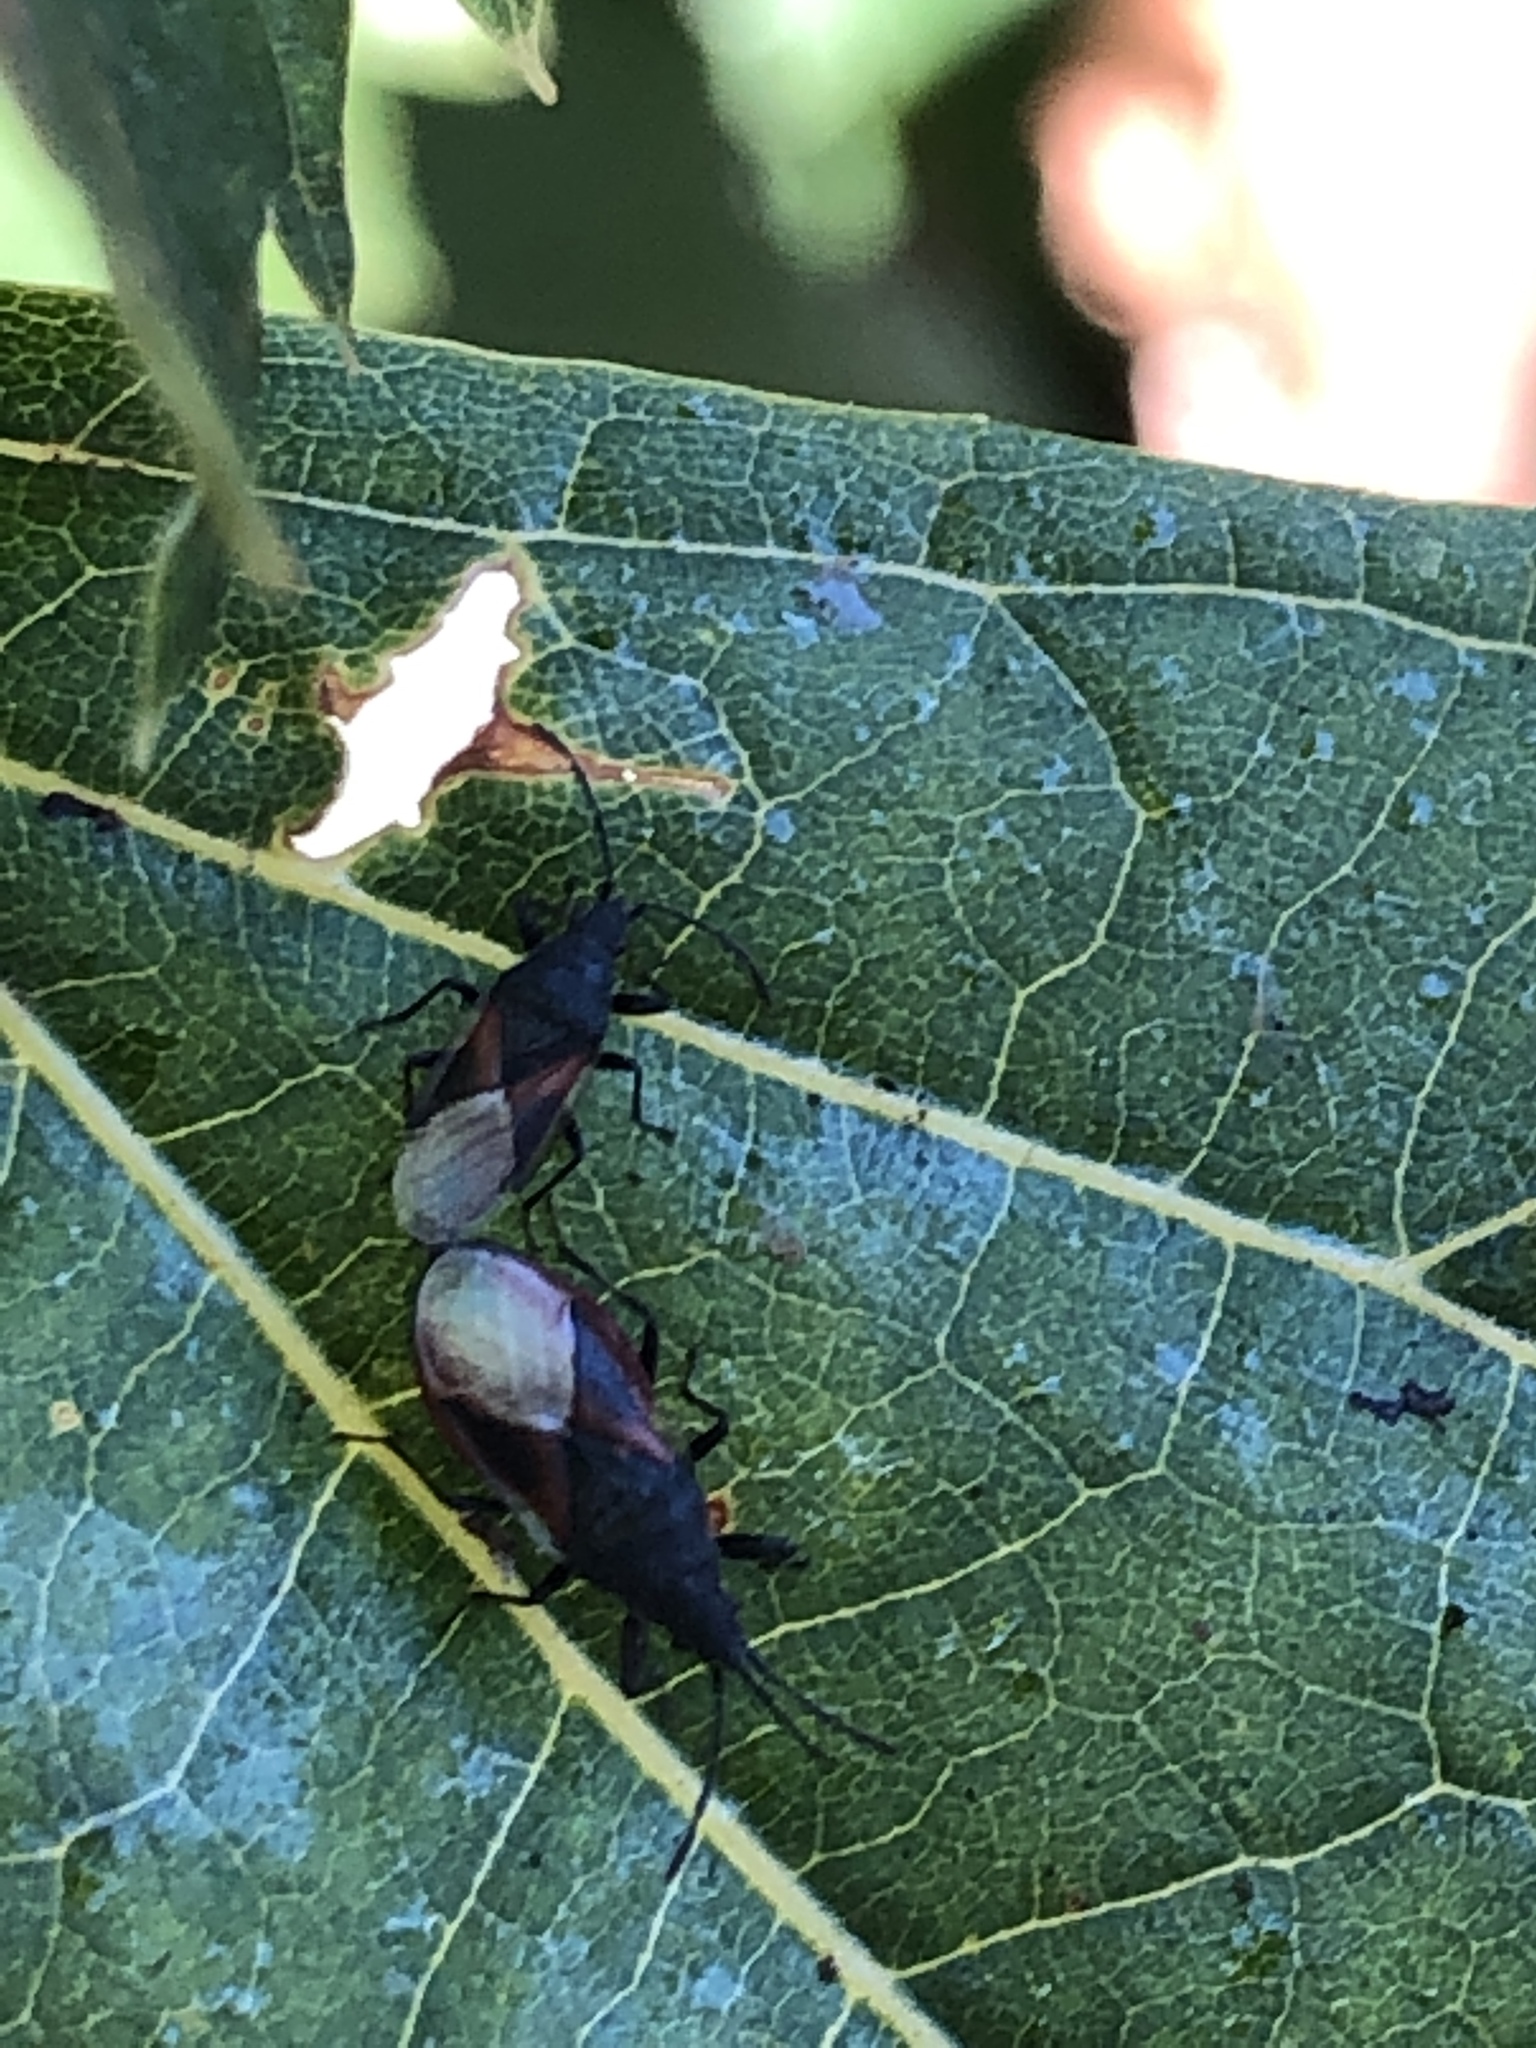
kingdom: Animalia
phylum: Arthropoda
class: Insecta
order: Hemiptera
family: Oxycarenidae
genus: Oxycarenus
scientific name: Oxycarenus lavaterae
